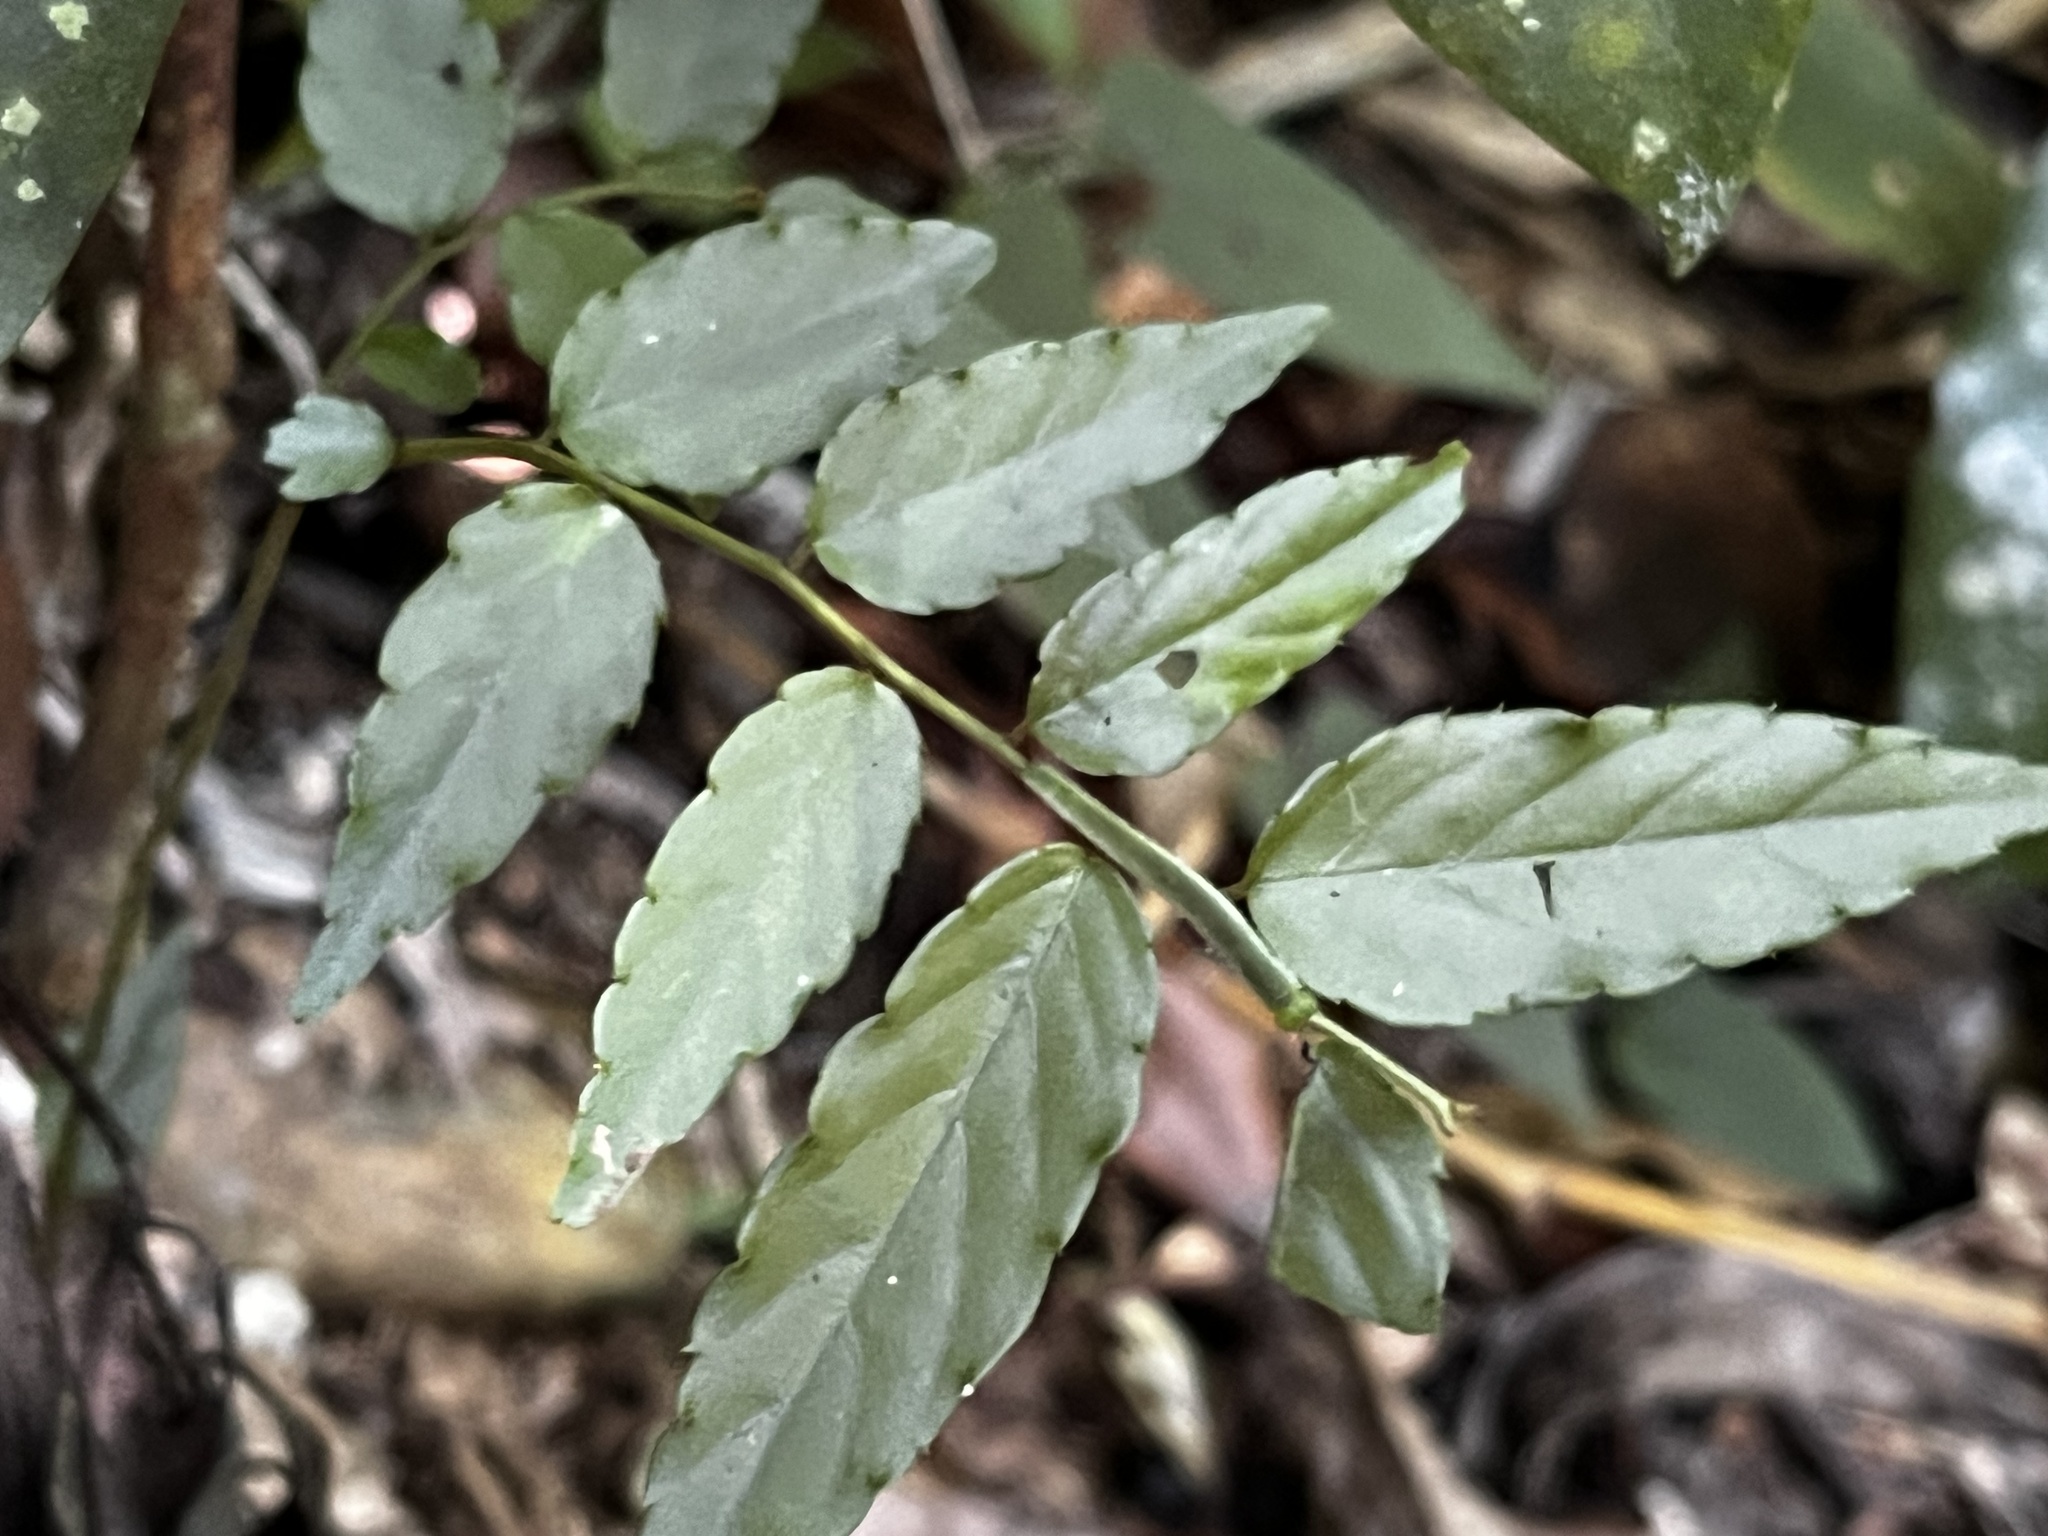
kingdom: Plantae
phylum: Tracheophyta
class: Magnoliopsida
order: Rosales
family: Rhamnaceae
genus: Ventilago
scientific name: Ventilago leiocarpa
